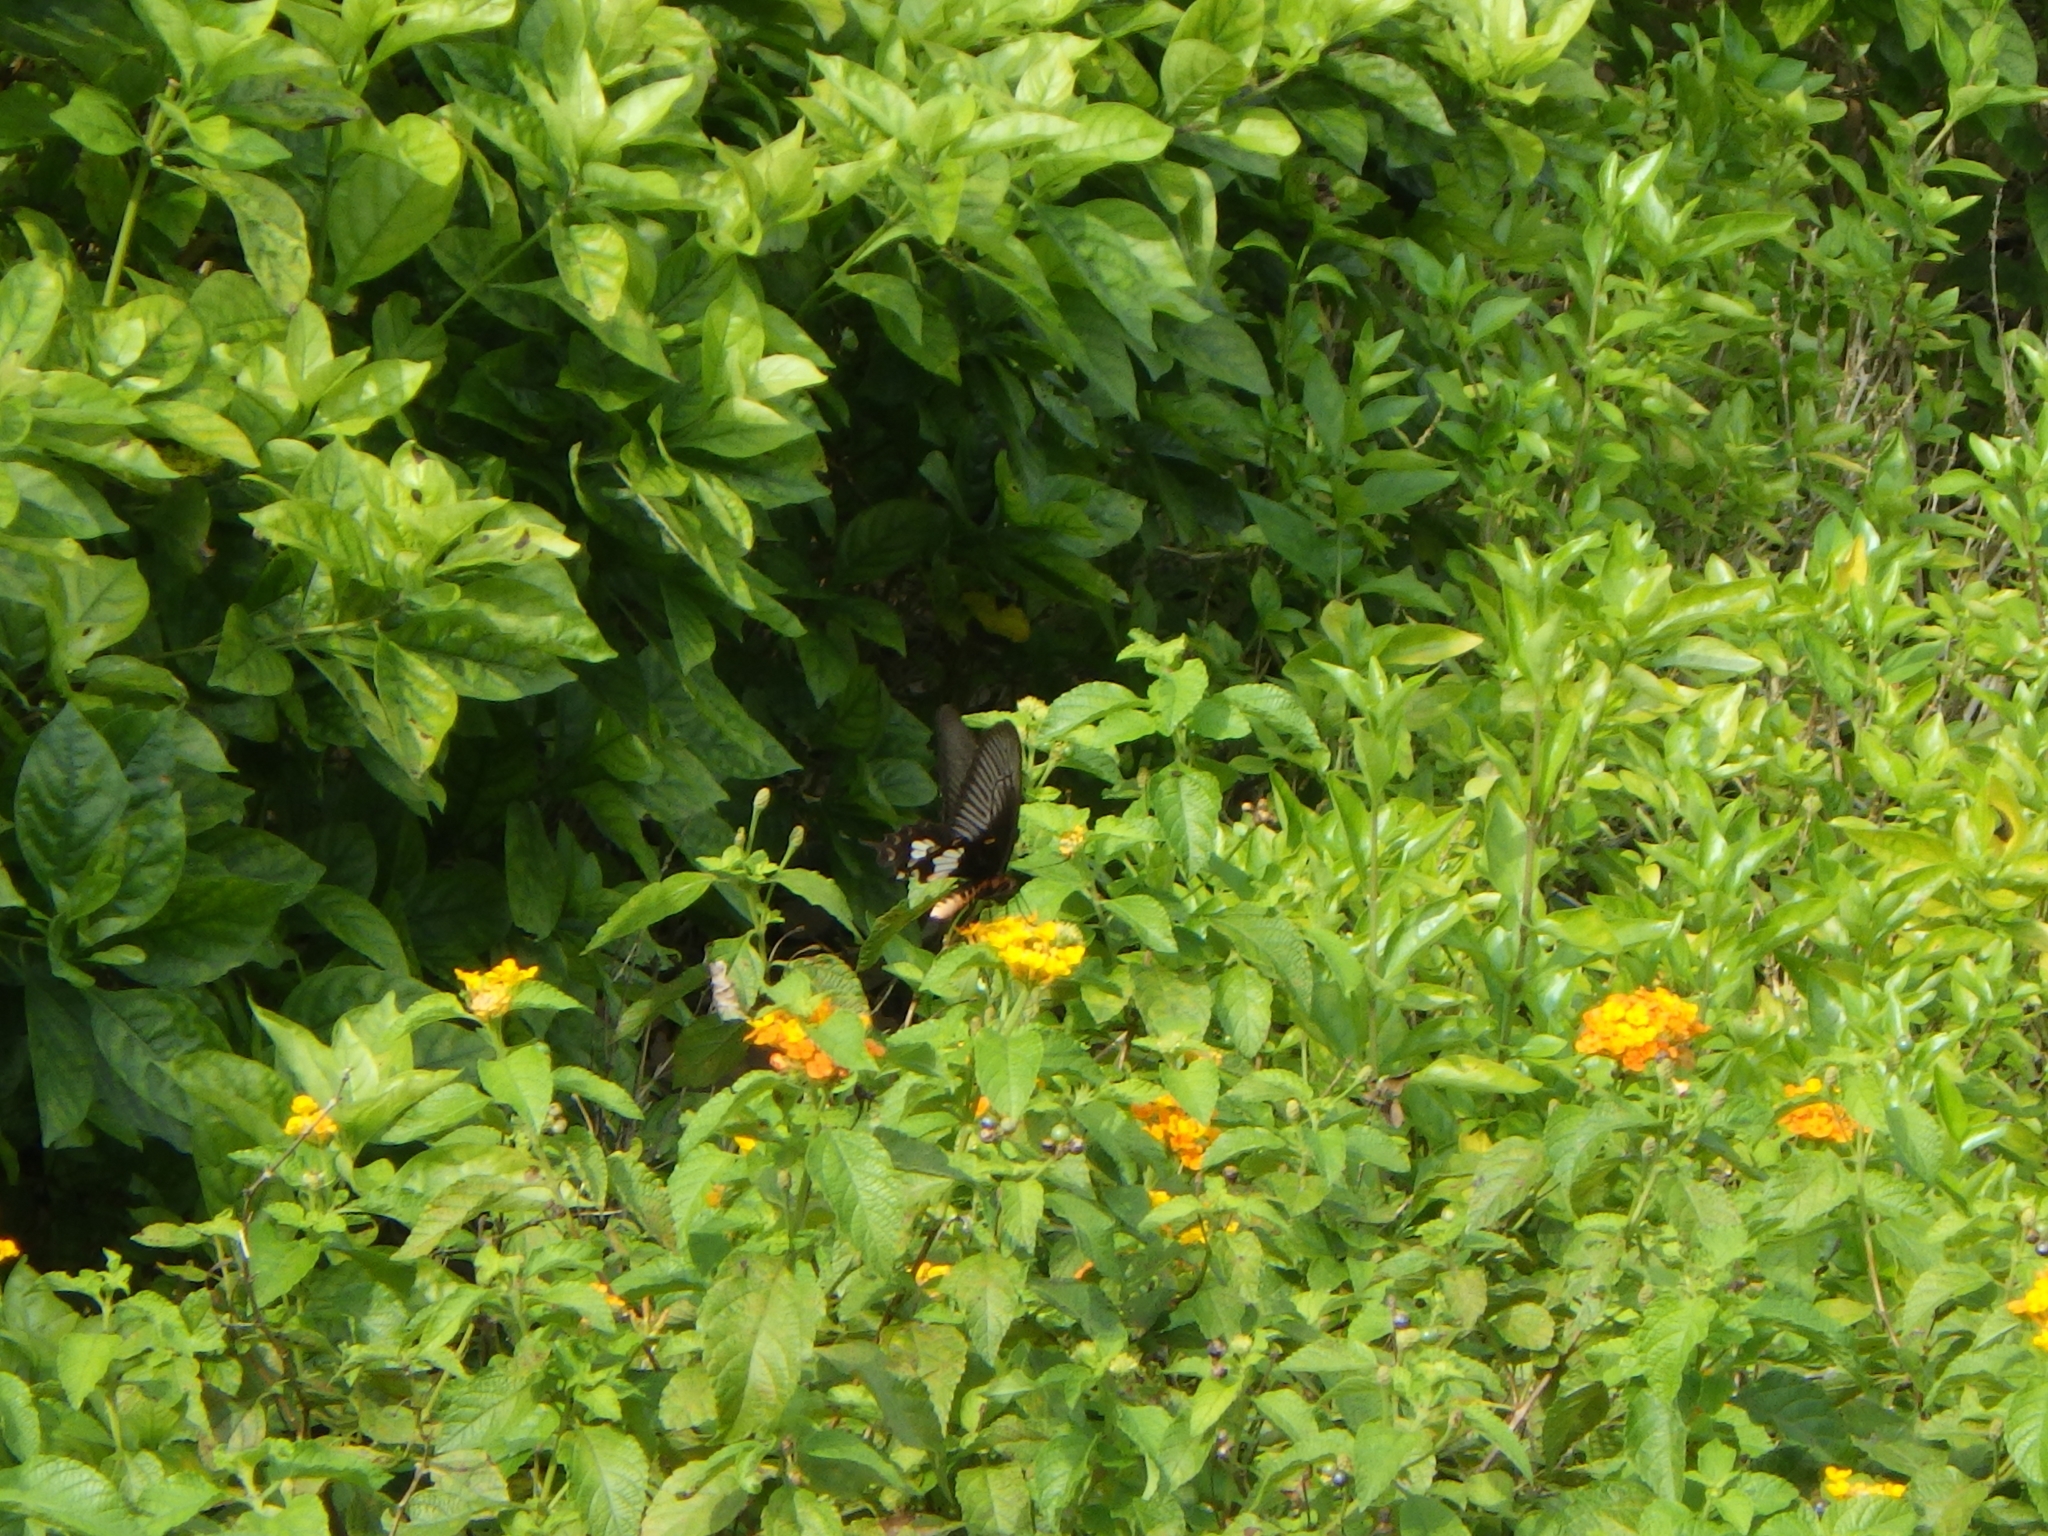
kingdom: Animalia
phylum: Arthropoda
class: Insecta
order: Lepidoptera
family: Papilionidae
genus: Pachliopta
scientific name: Pachliopta aristolochiae
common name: Common rose
